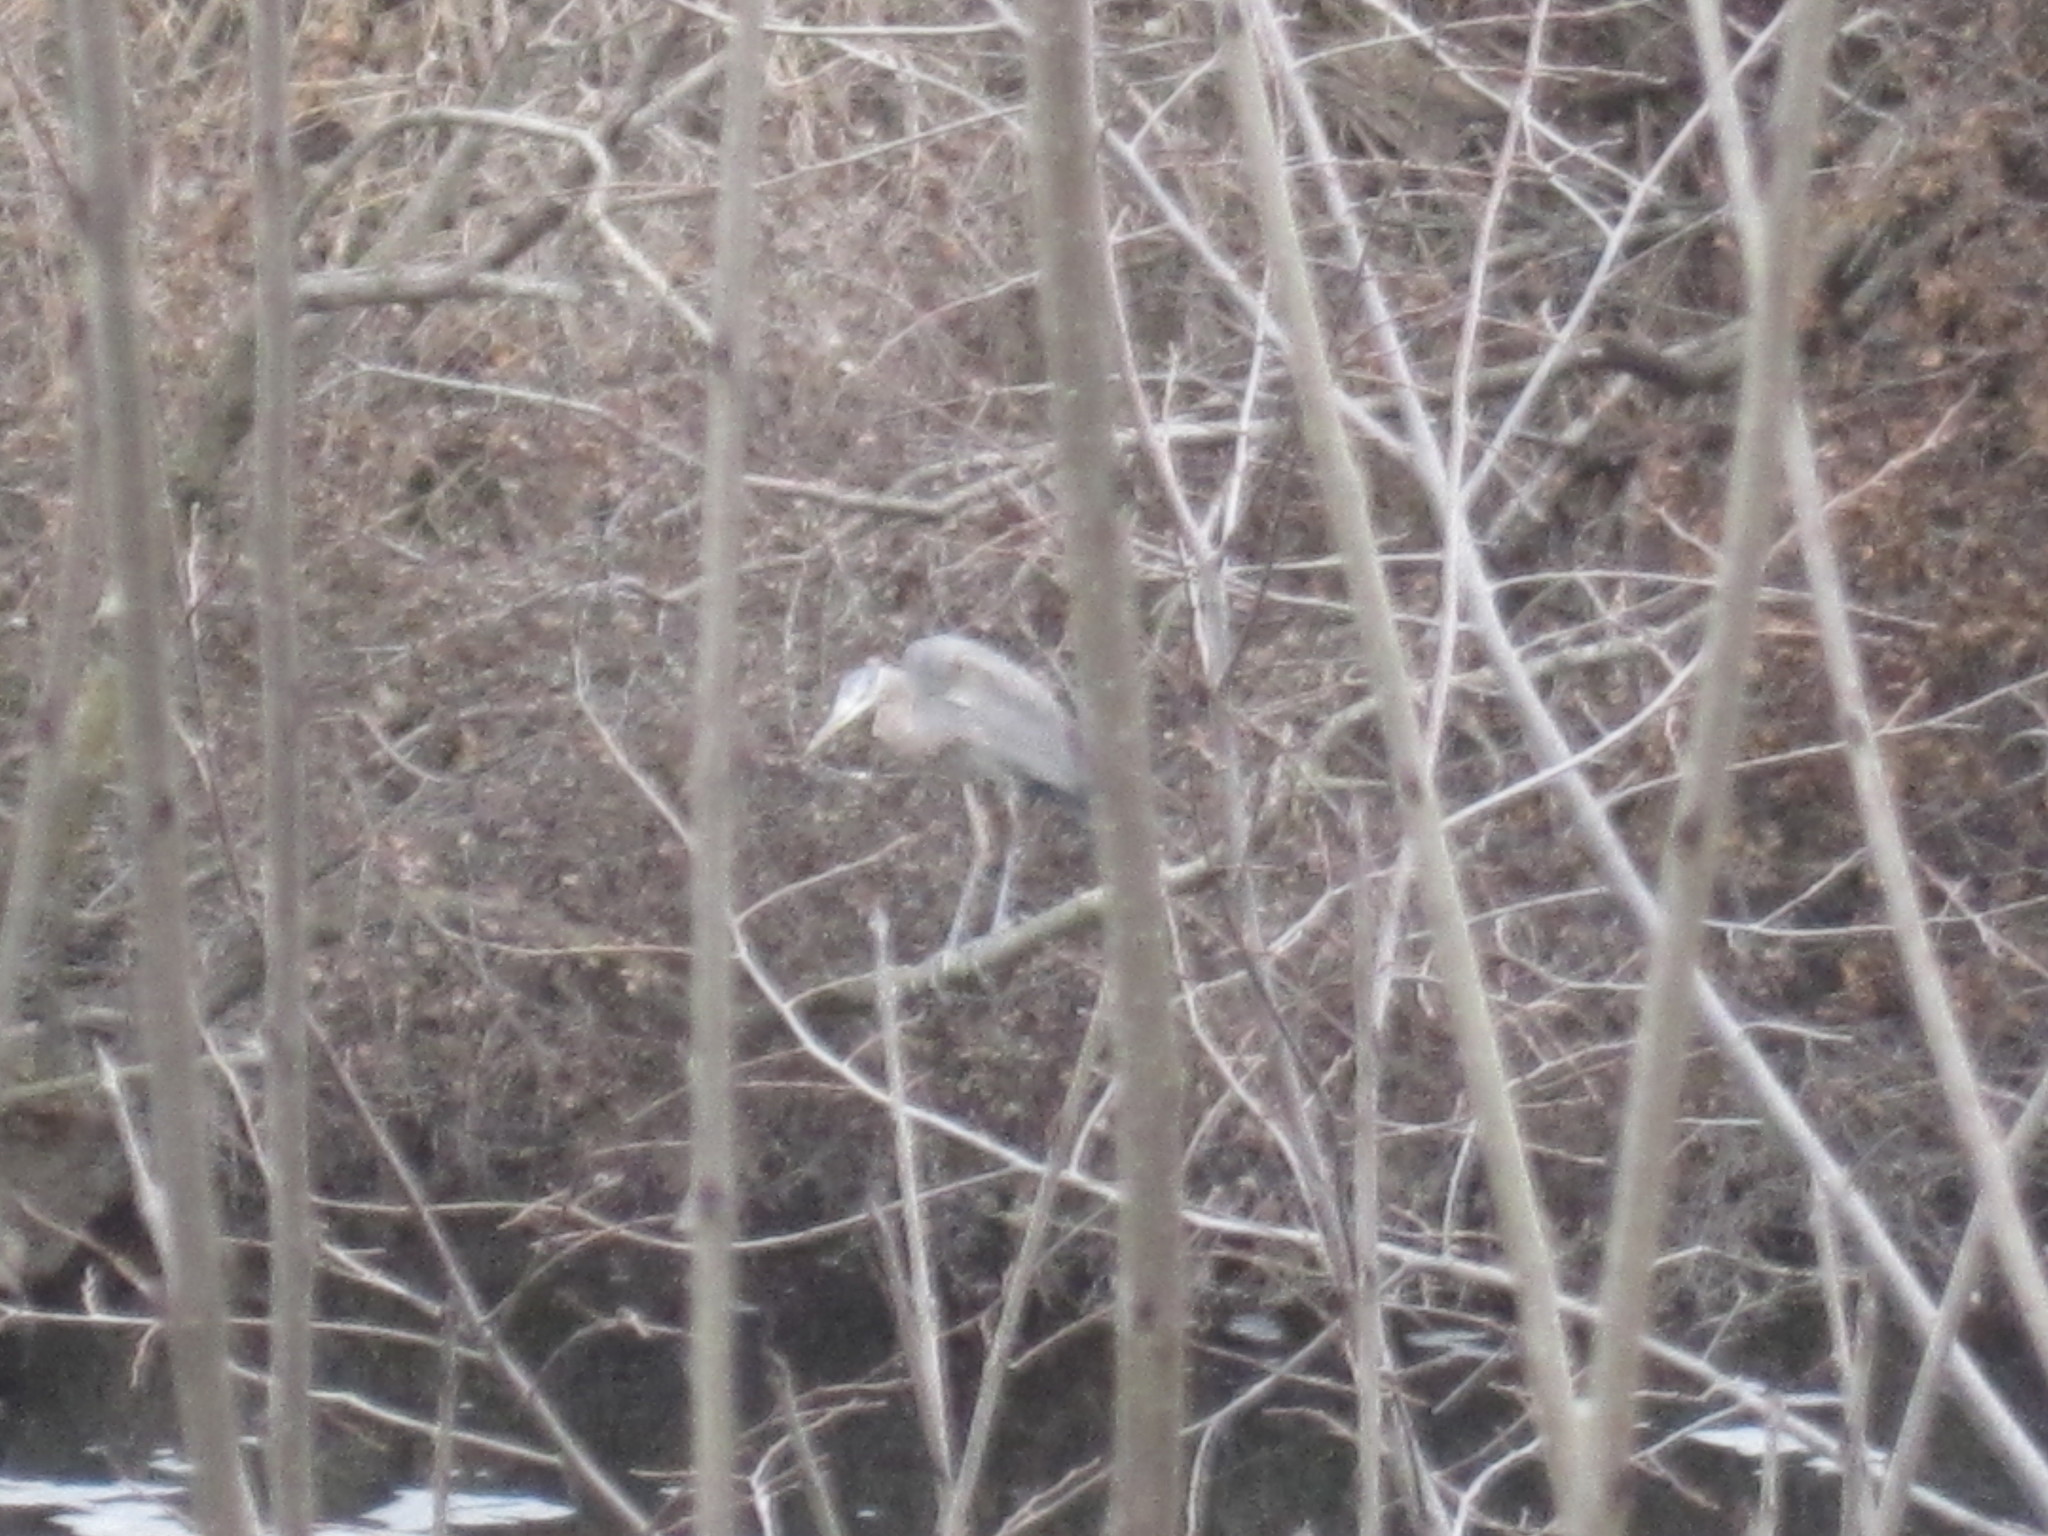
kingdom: Animalia
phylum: Chordata
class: Aves
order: Pelecaniformes
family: Ardeidae
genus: Ardea
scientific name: Ardea herodias
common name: Great blue heron
